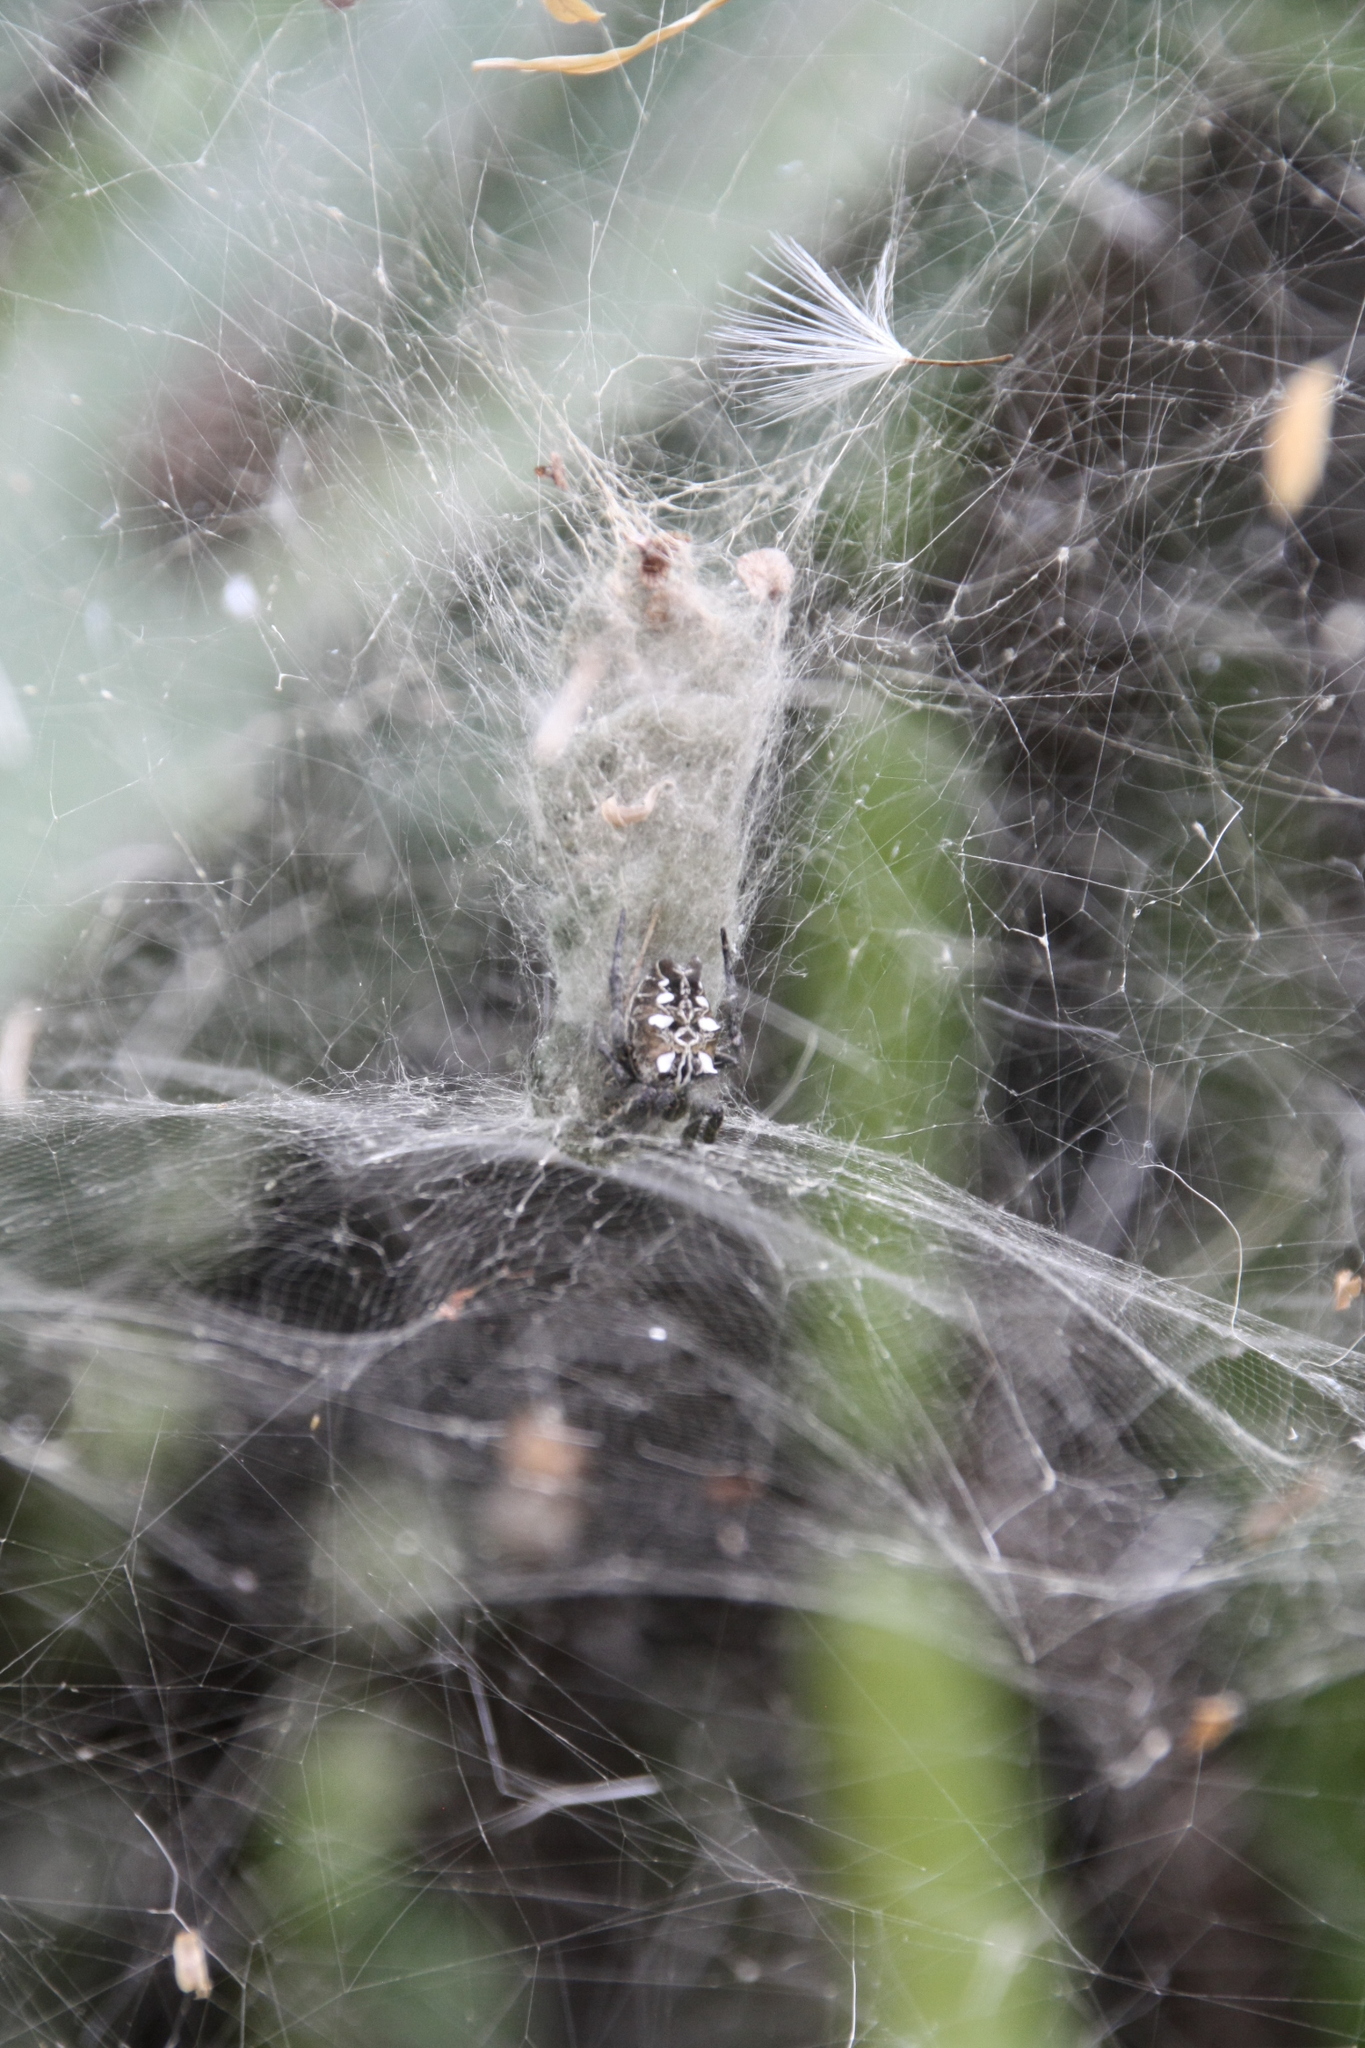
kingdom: Animalia
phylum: Arthropoda
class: Arachnida
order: Araneae
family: Araneidae
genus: Cyrtophora
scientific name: Cyrtophora citricola
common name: Orb weavers
